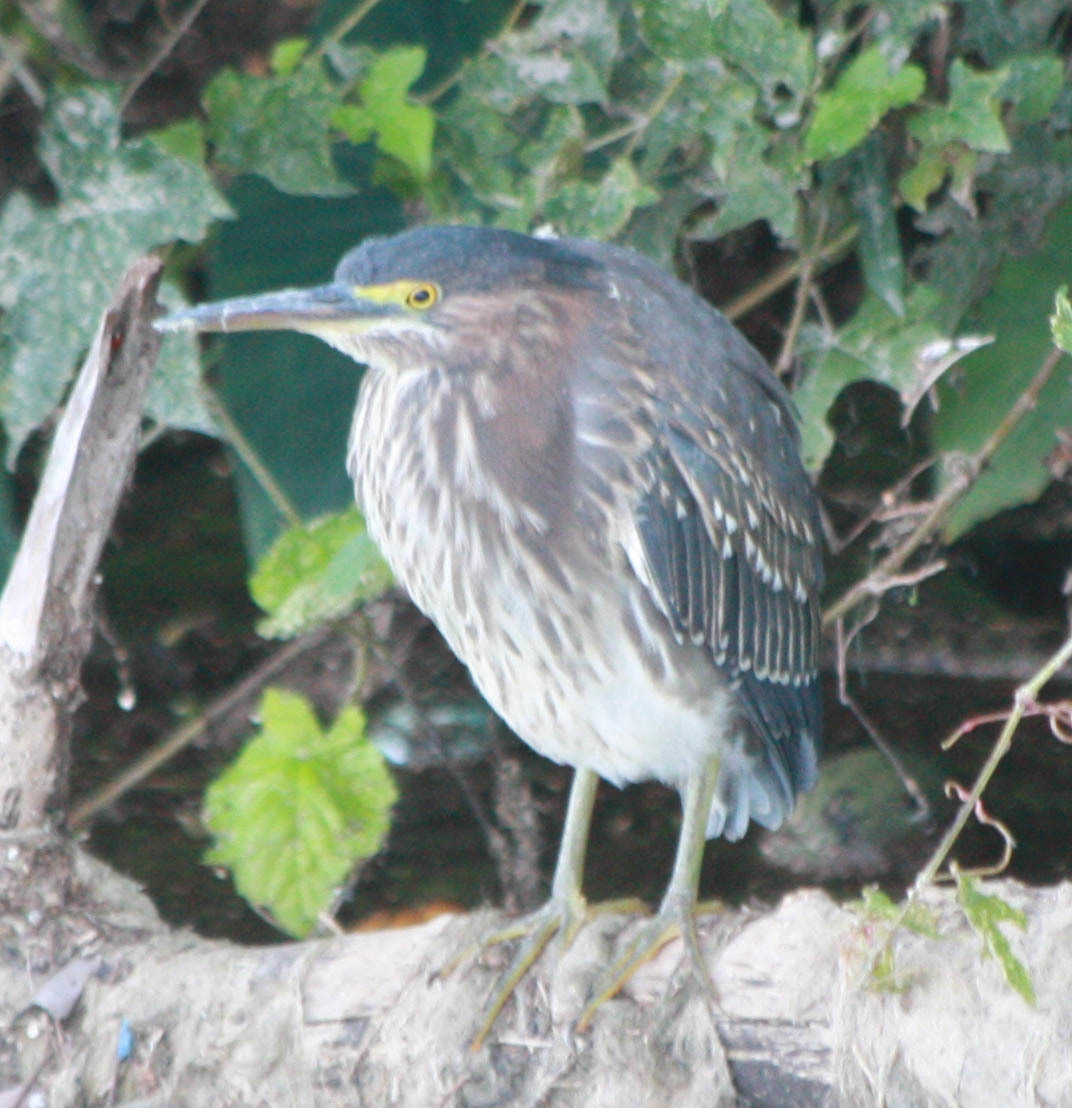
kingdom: Animalia
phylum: Chordata
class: Aves
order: Pelecaniformes
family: Ardeidae
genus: Butorides
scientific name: Butorides virescens
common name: Green heron
